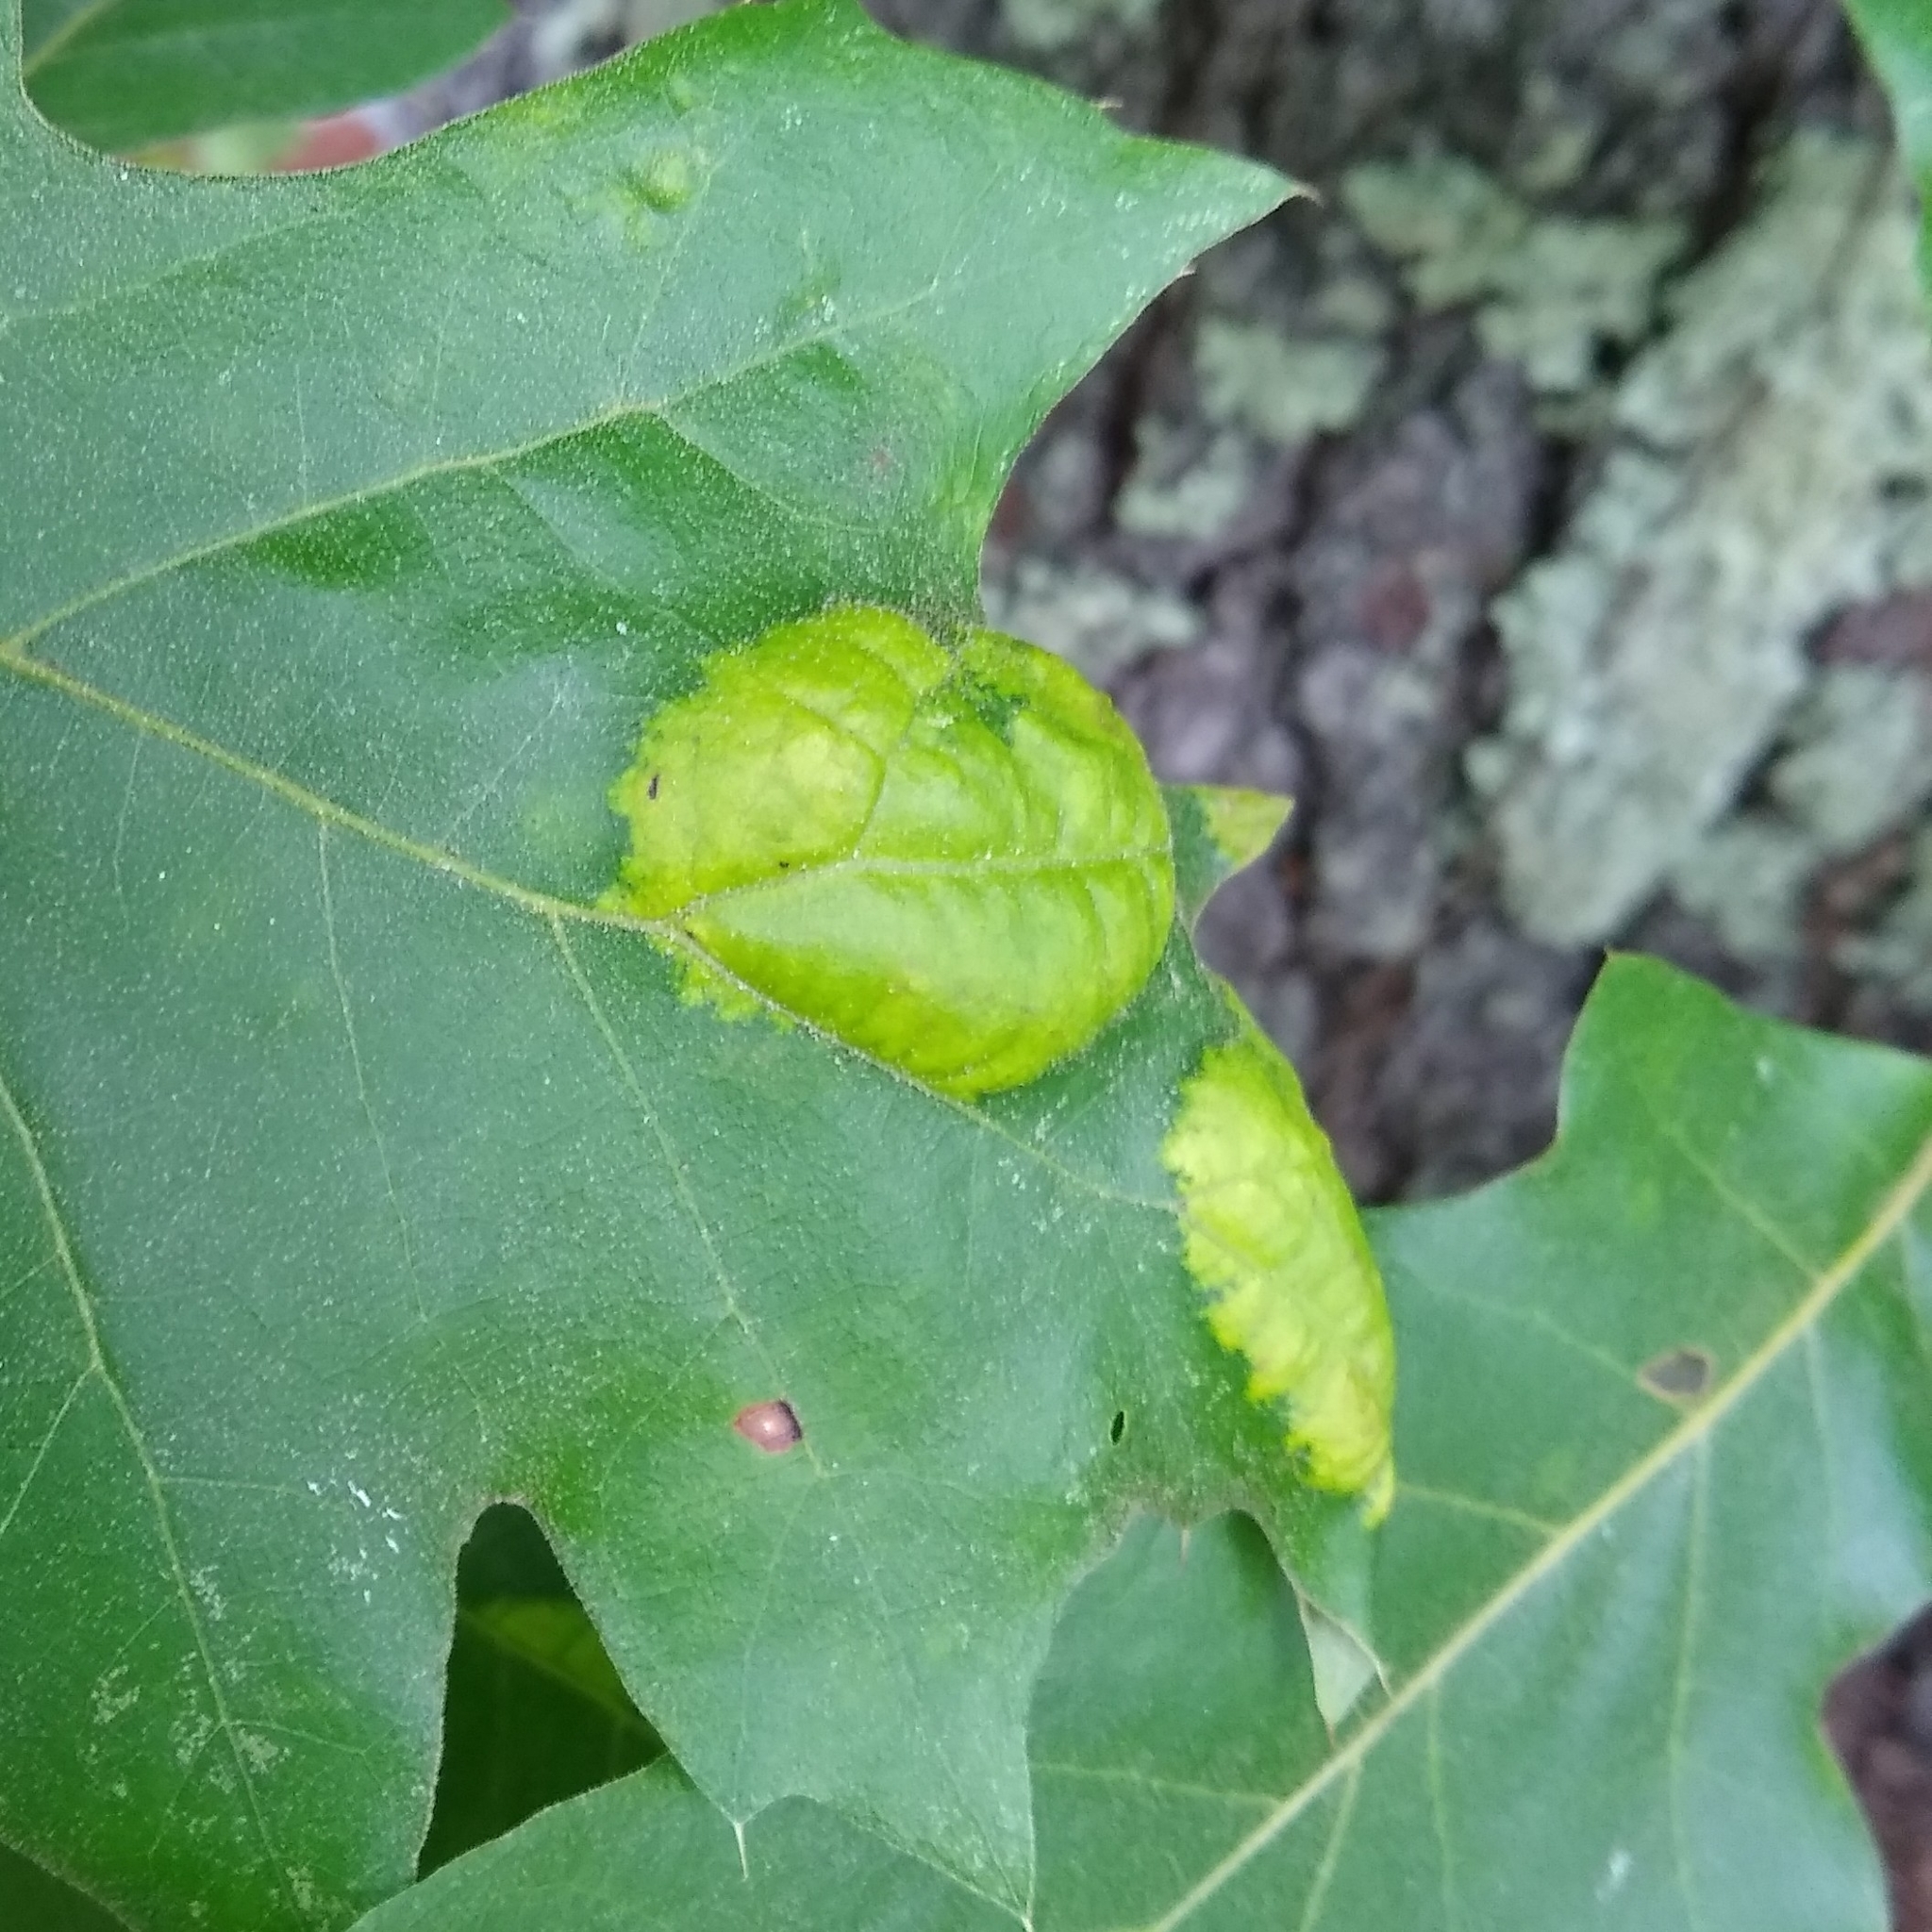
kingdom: Fungi
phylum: Ascomycota
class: Taphrinomycetes
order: Taphrinales
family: Taphrinaceae
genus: Taphrina
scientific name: Taphrina caerulescens
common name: Oak leaf blister
